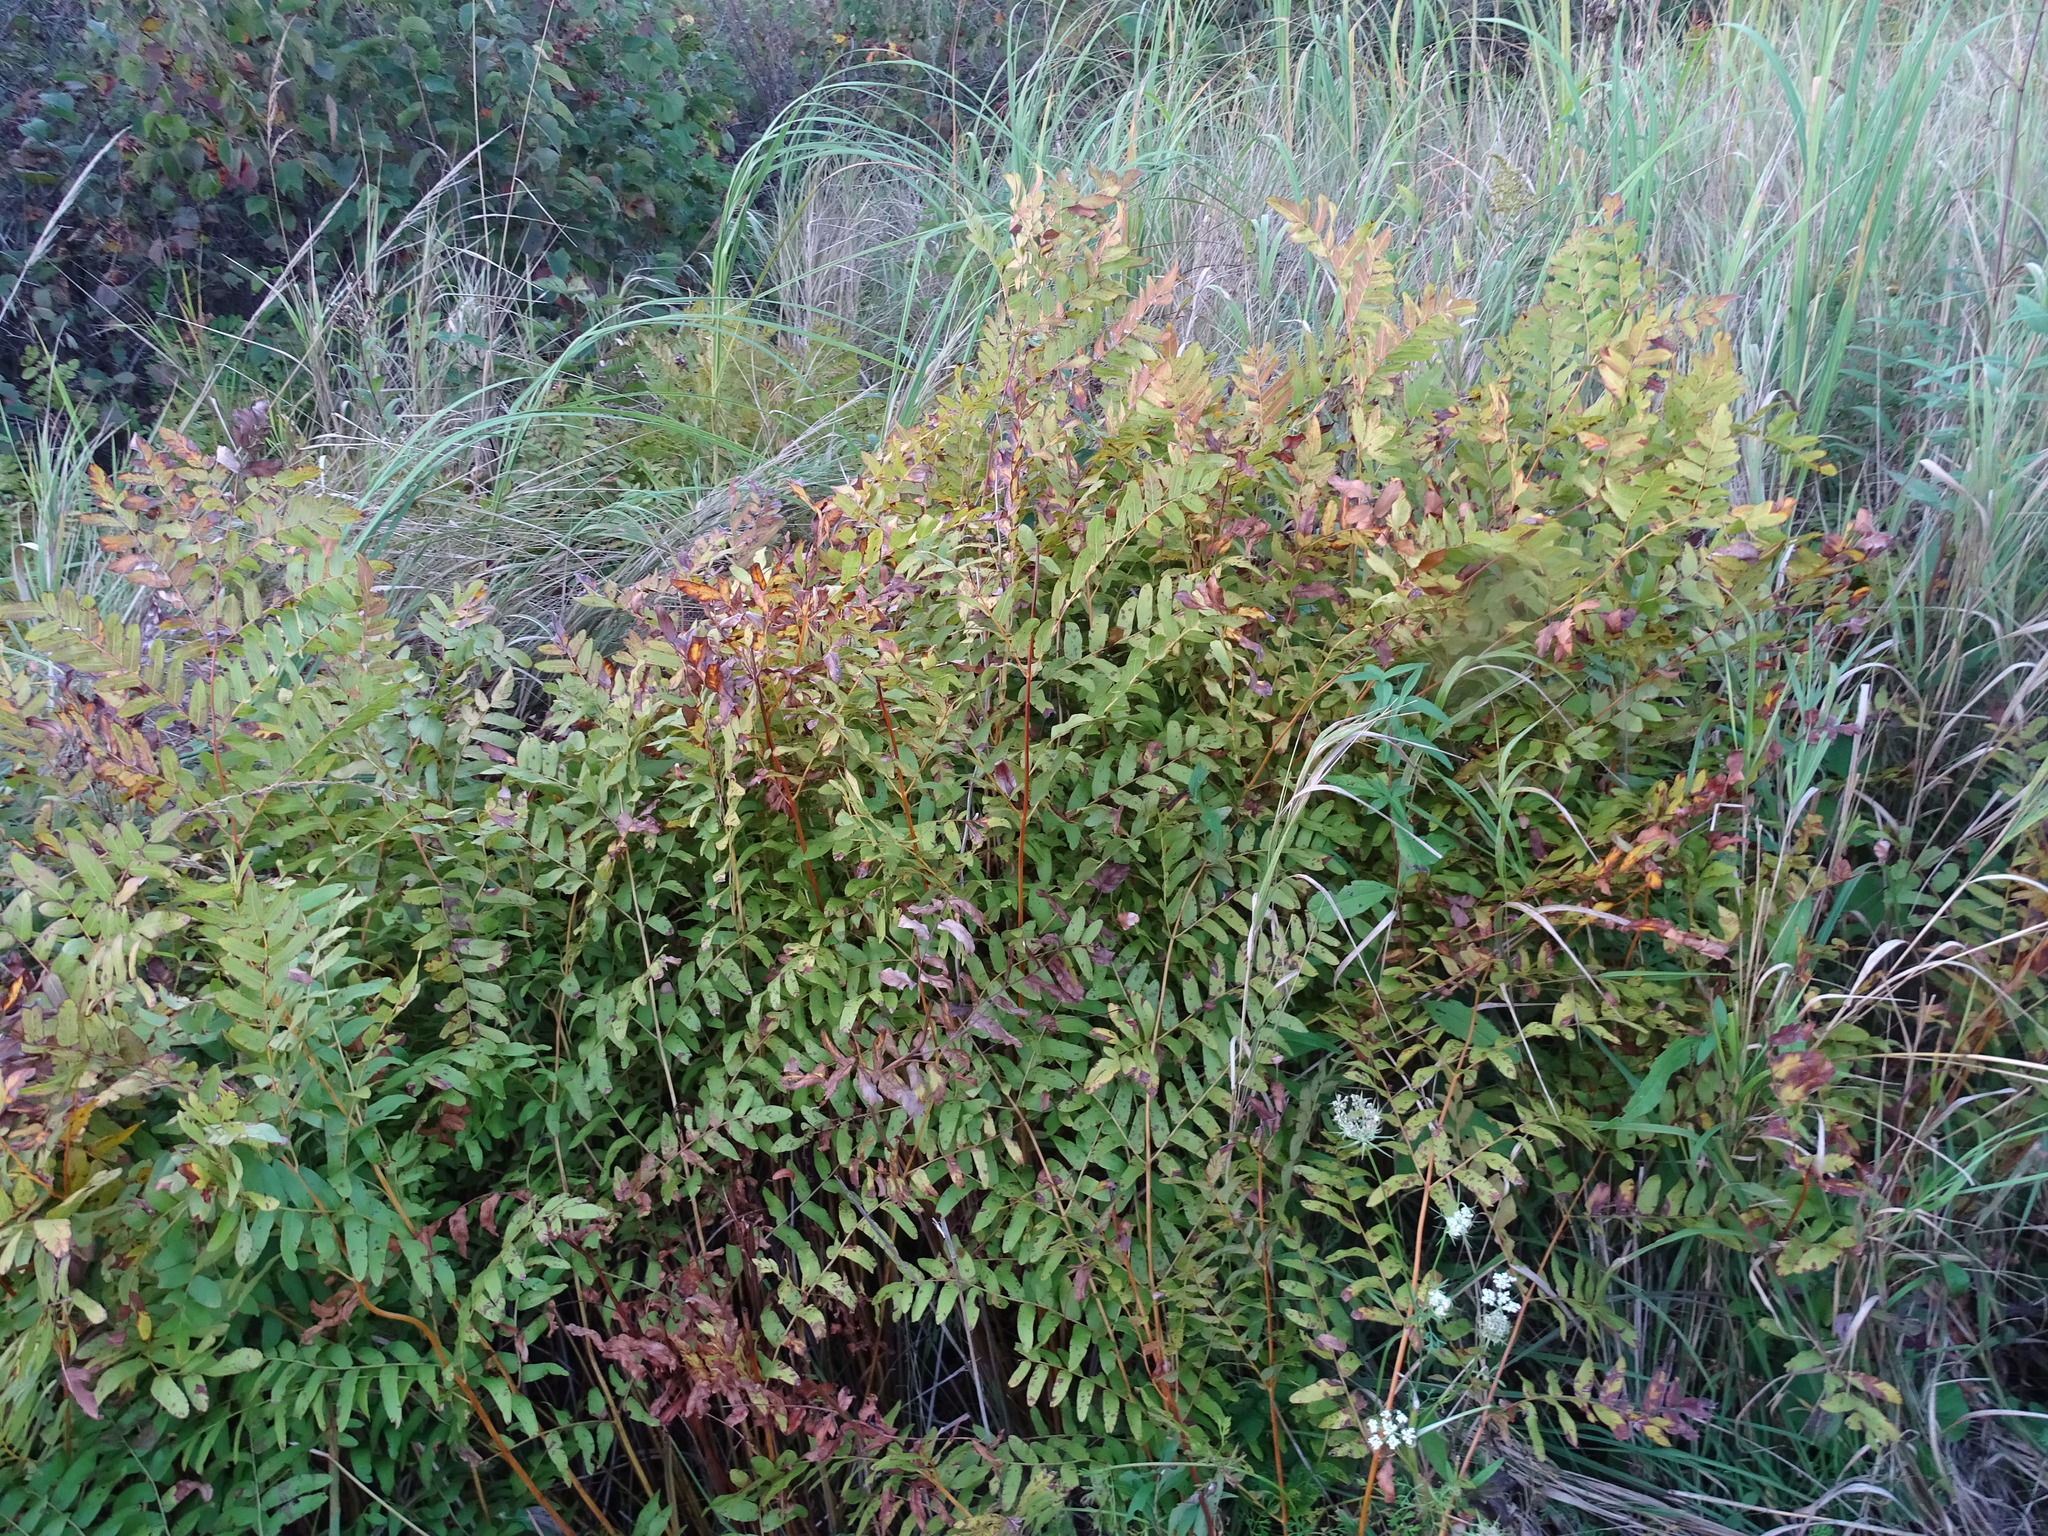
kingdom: Plantae
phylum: Tracheophyta
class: Polypodiopsida
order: Osmundales
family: Osmundaceae
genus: Osmunda
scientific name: Osmunda spectabilis
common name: American royal fern
